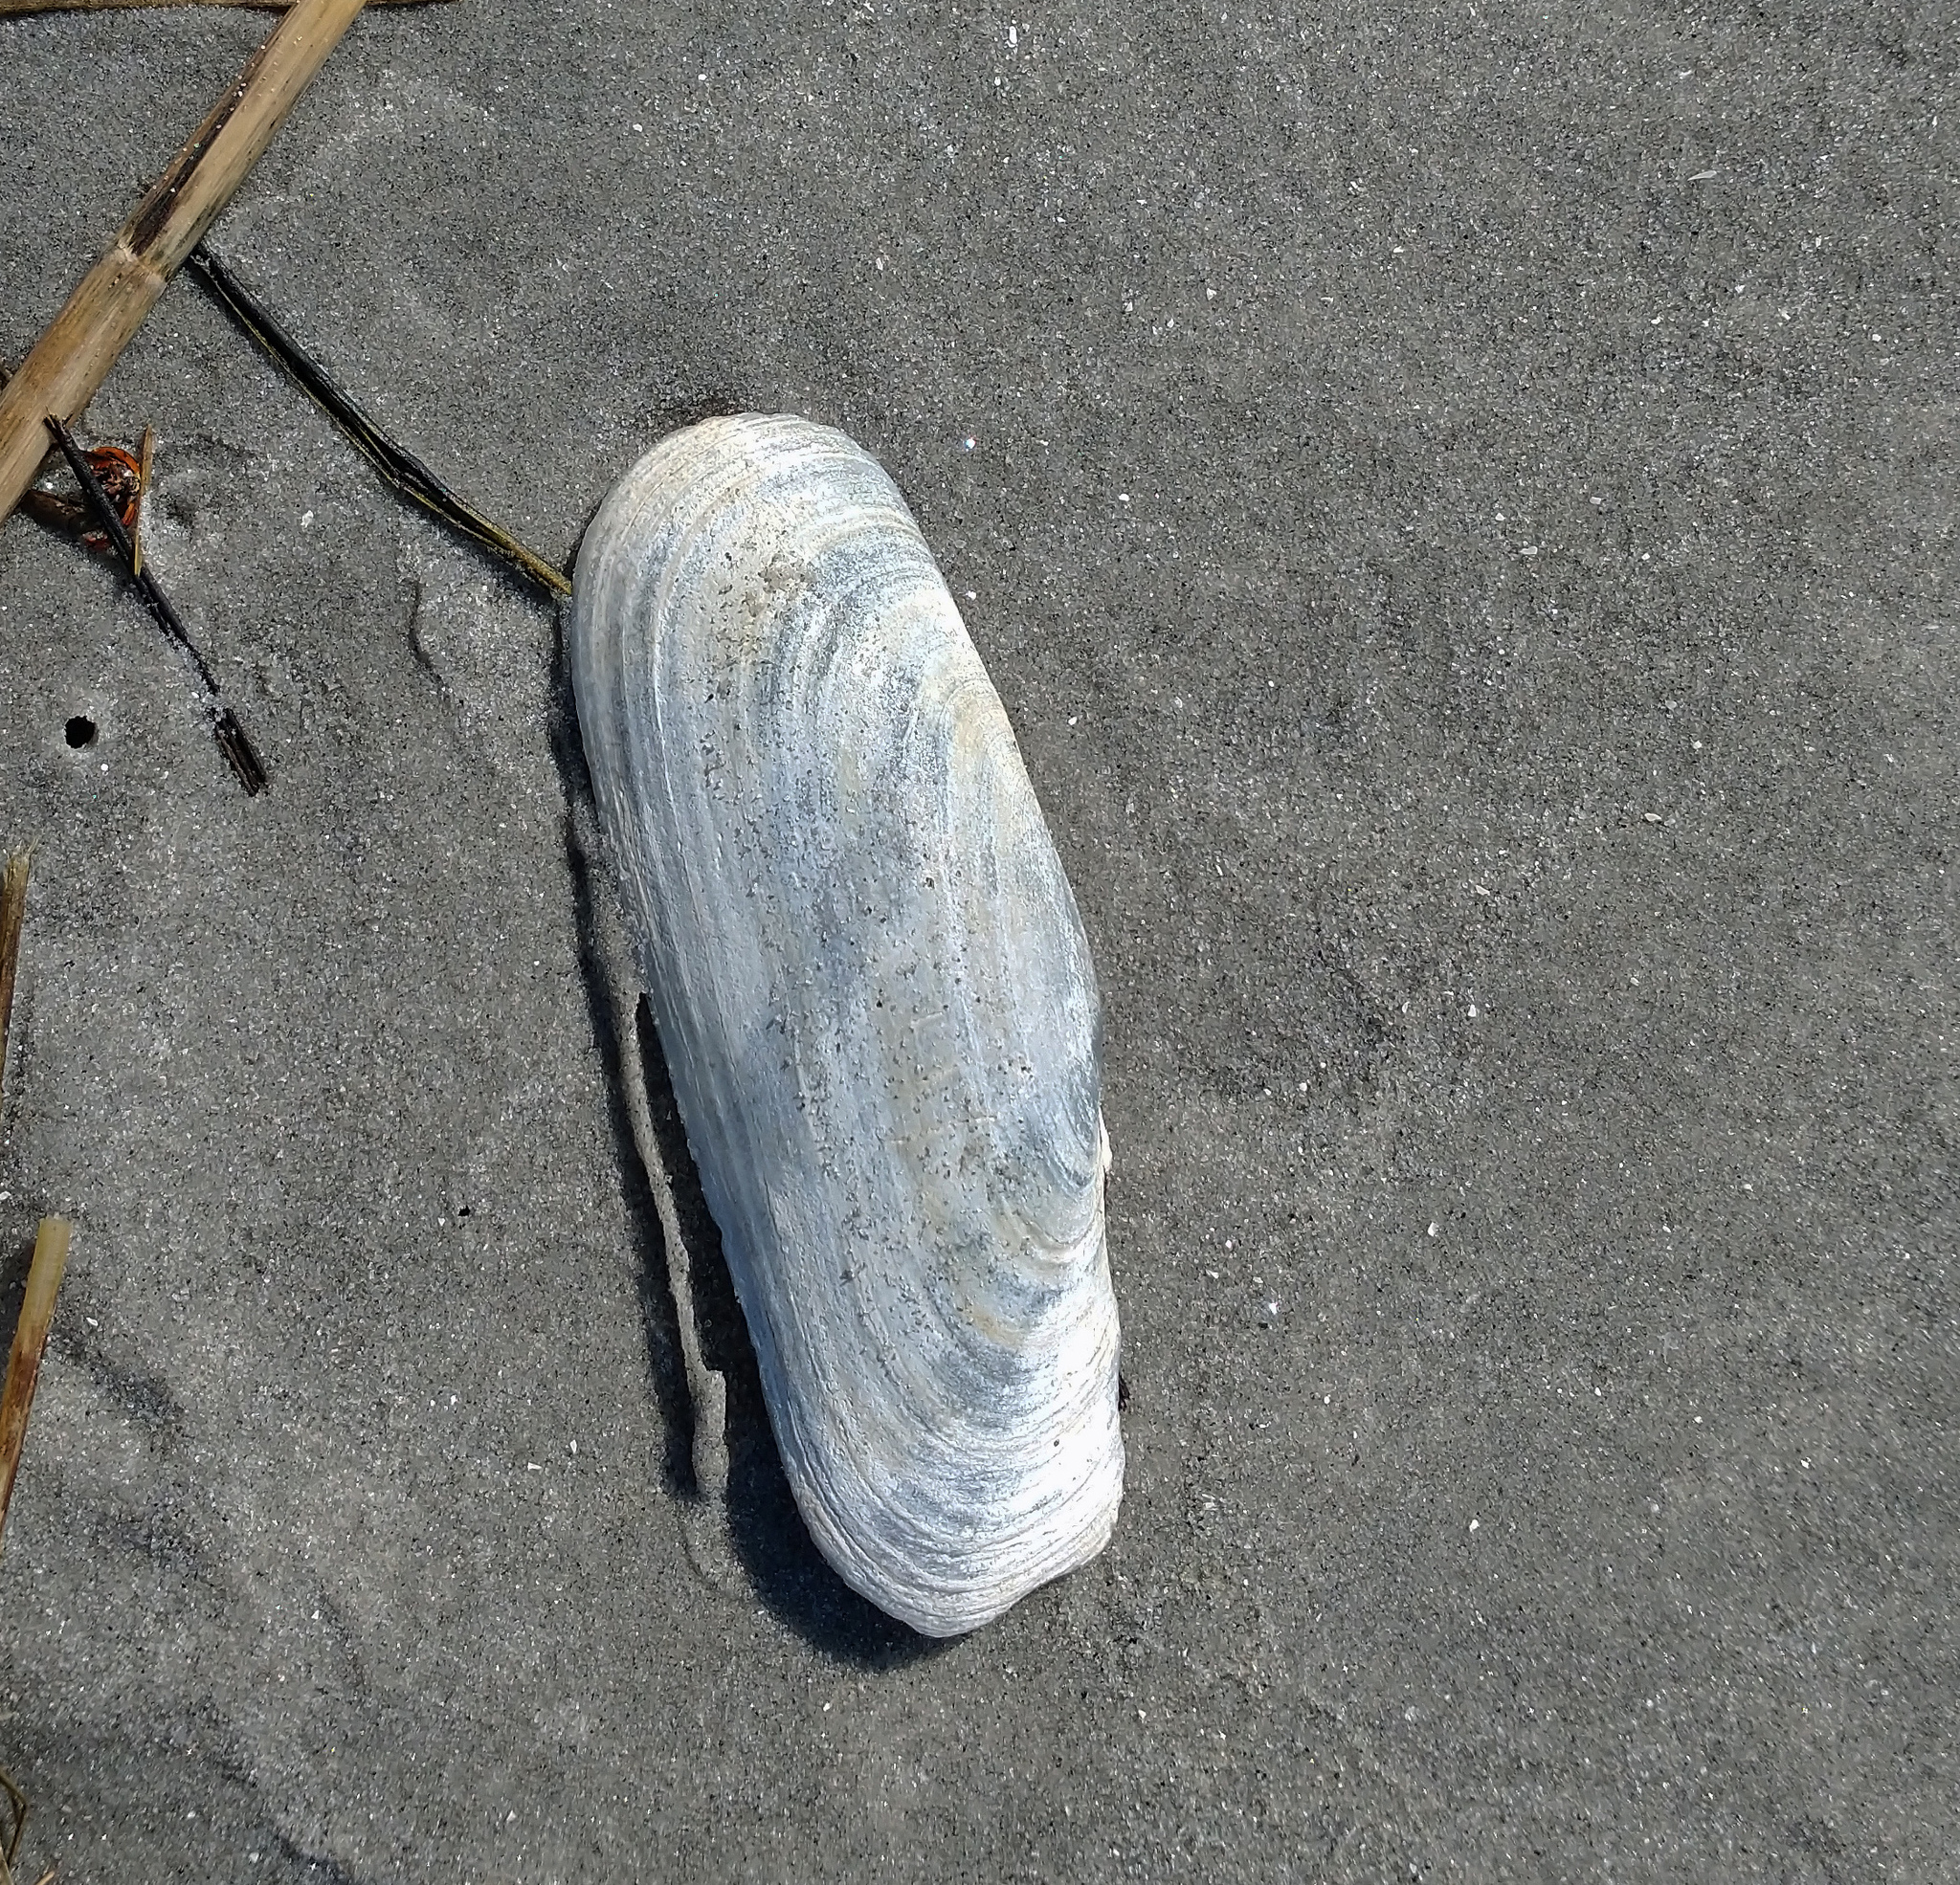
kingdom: Animalia
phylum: Mollusca
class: Bivalvia
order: Cardiida
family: Solecurtidae
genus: Tagelus
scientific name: Tagelus plebeius
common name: Stout tagelus
